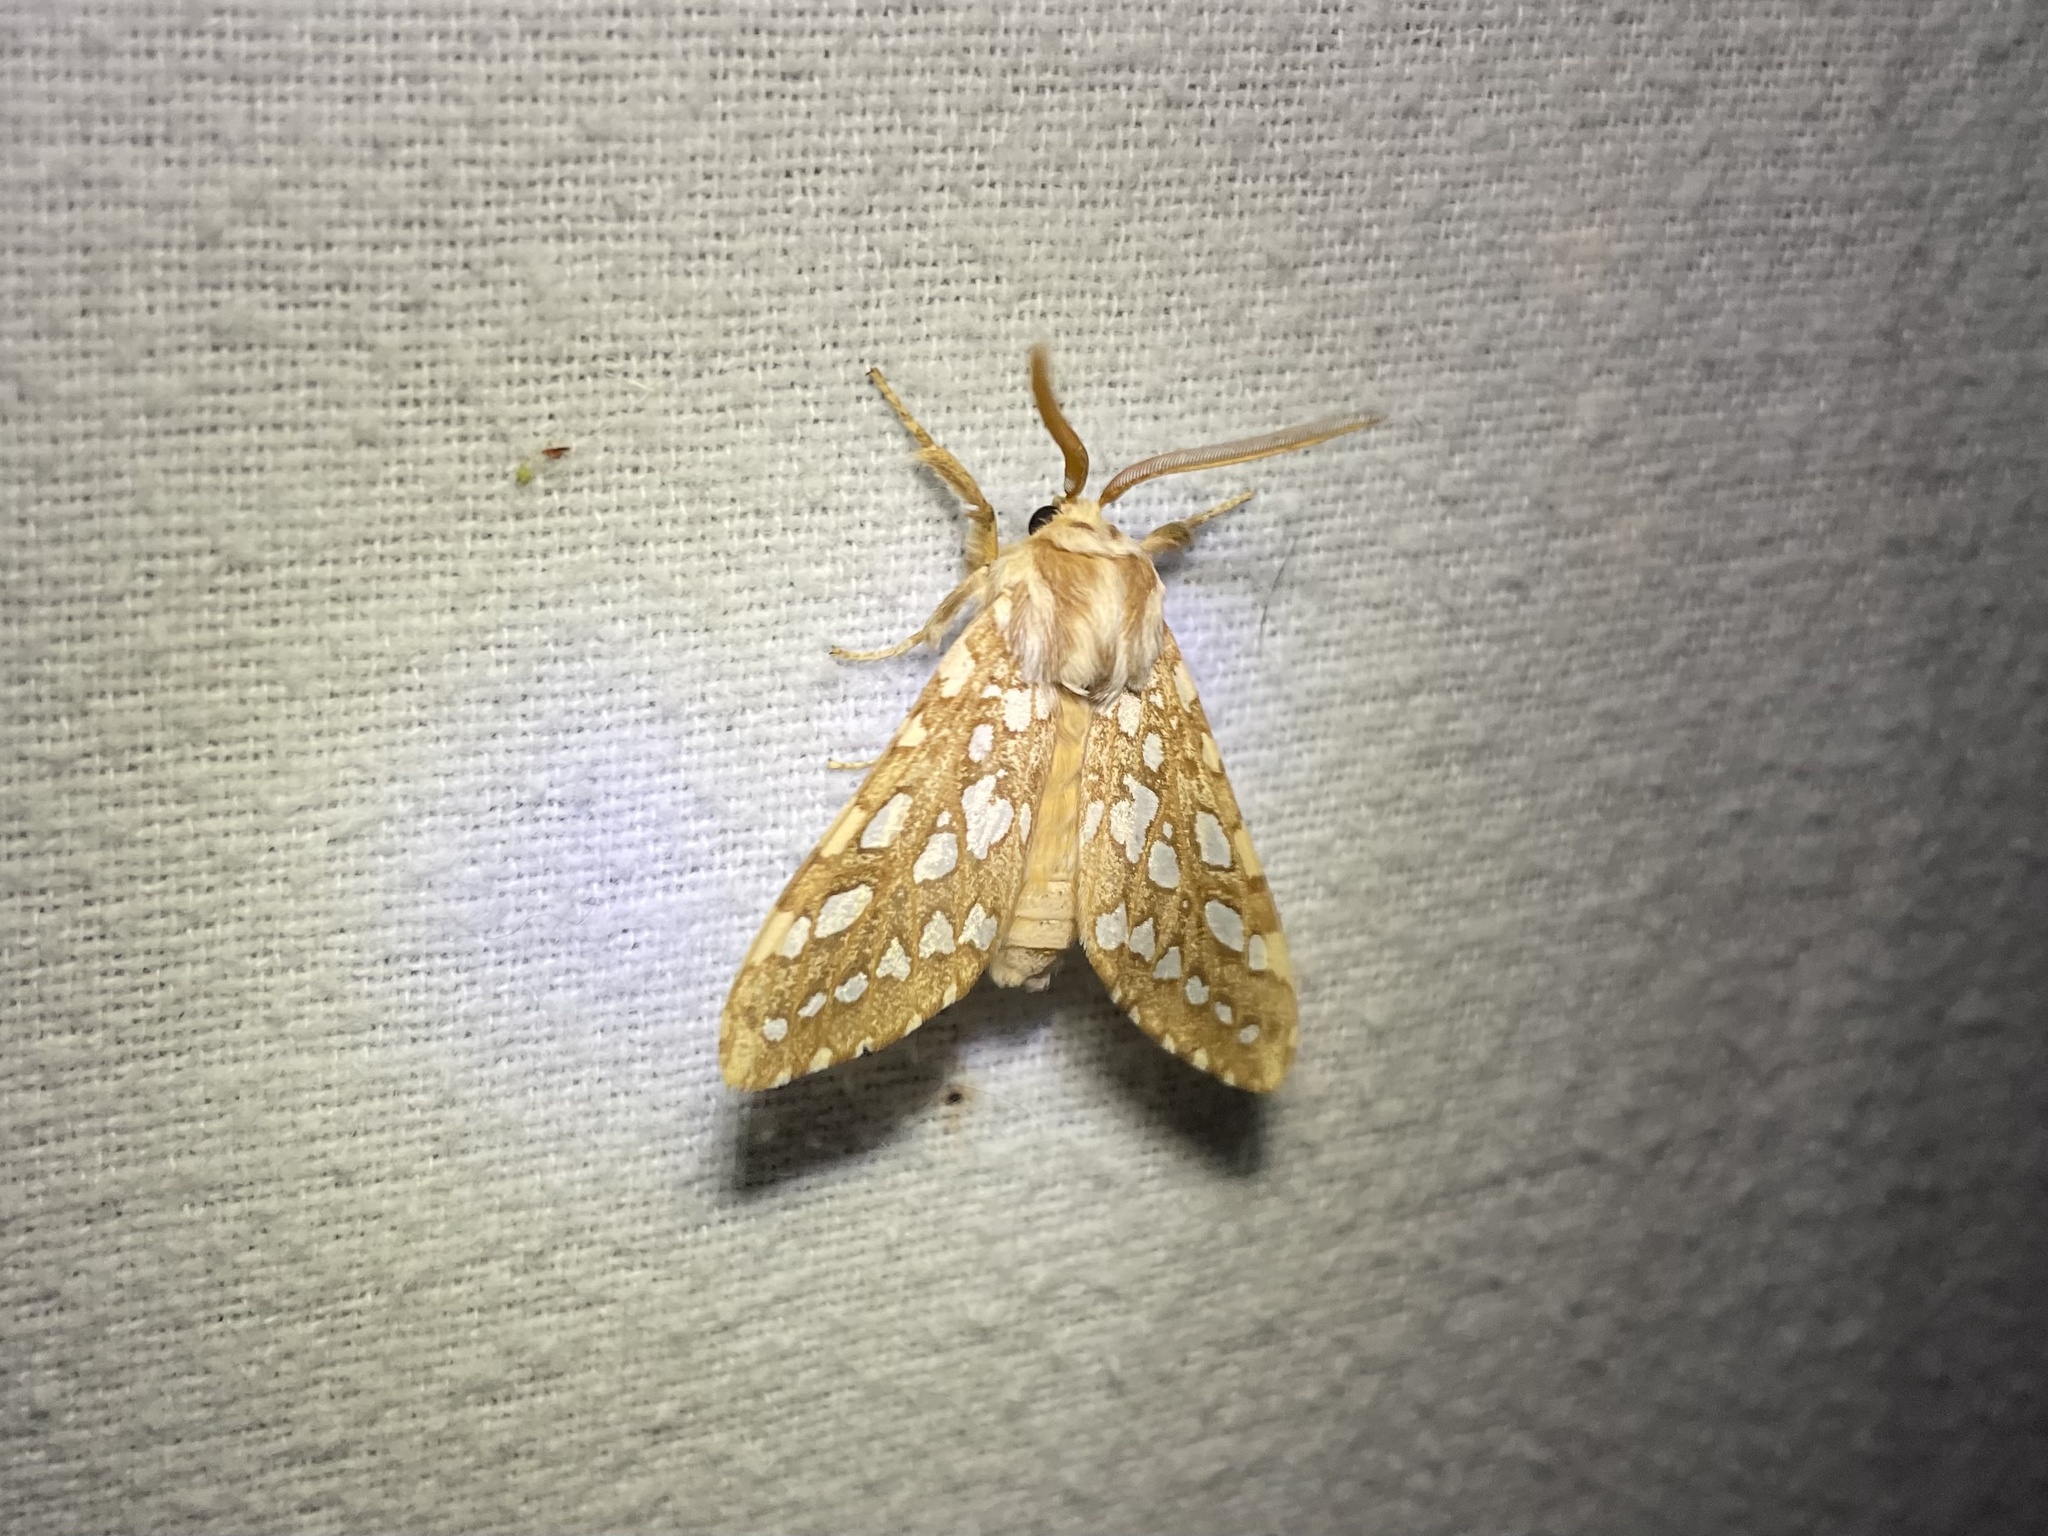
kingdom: Animalia
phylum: Arthropoda
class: Insecta
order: Lepidoptera
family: Erebidae
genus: Lophocampa
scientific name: Lophocampa argentata
